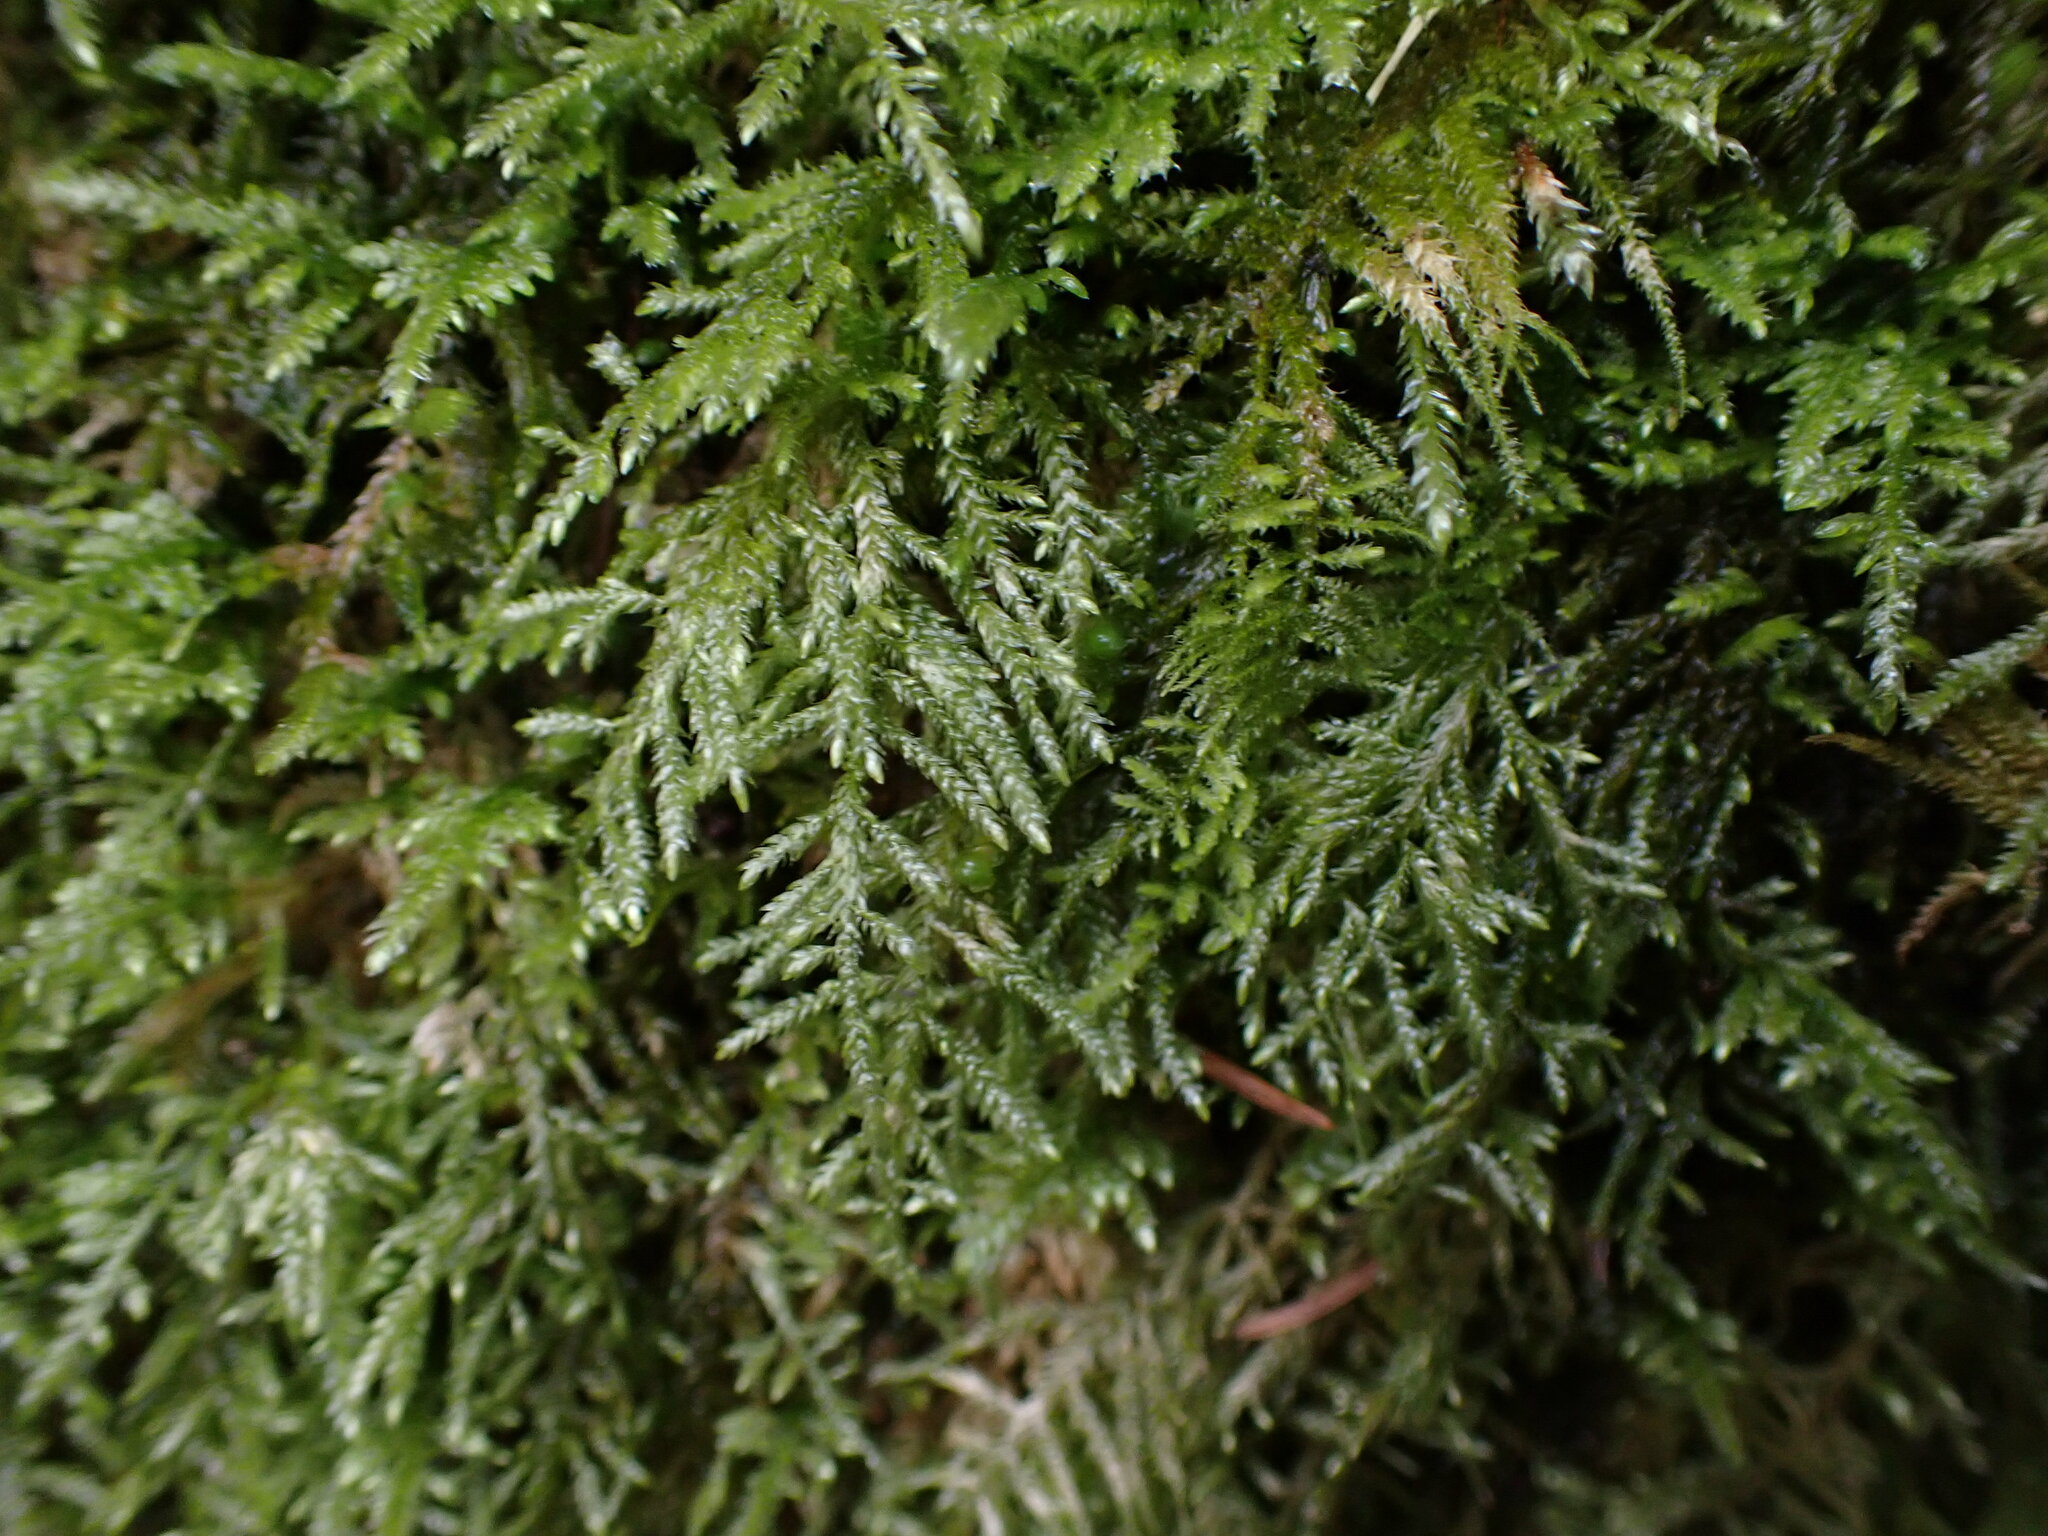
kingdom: Plantae
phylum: Bryophyta
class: Bryopsida
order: Hypnales
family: Lembophyllaceae
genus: Pseudisothecium
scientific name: Pseudisothecium stoloniferum
